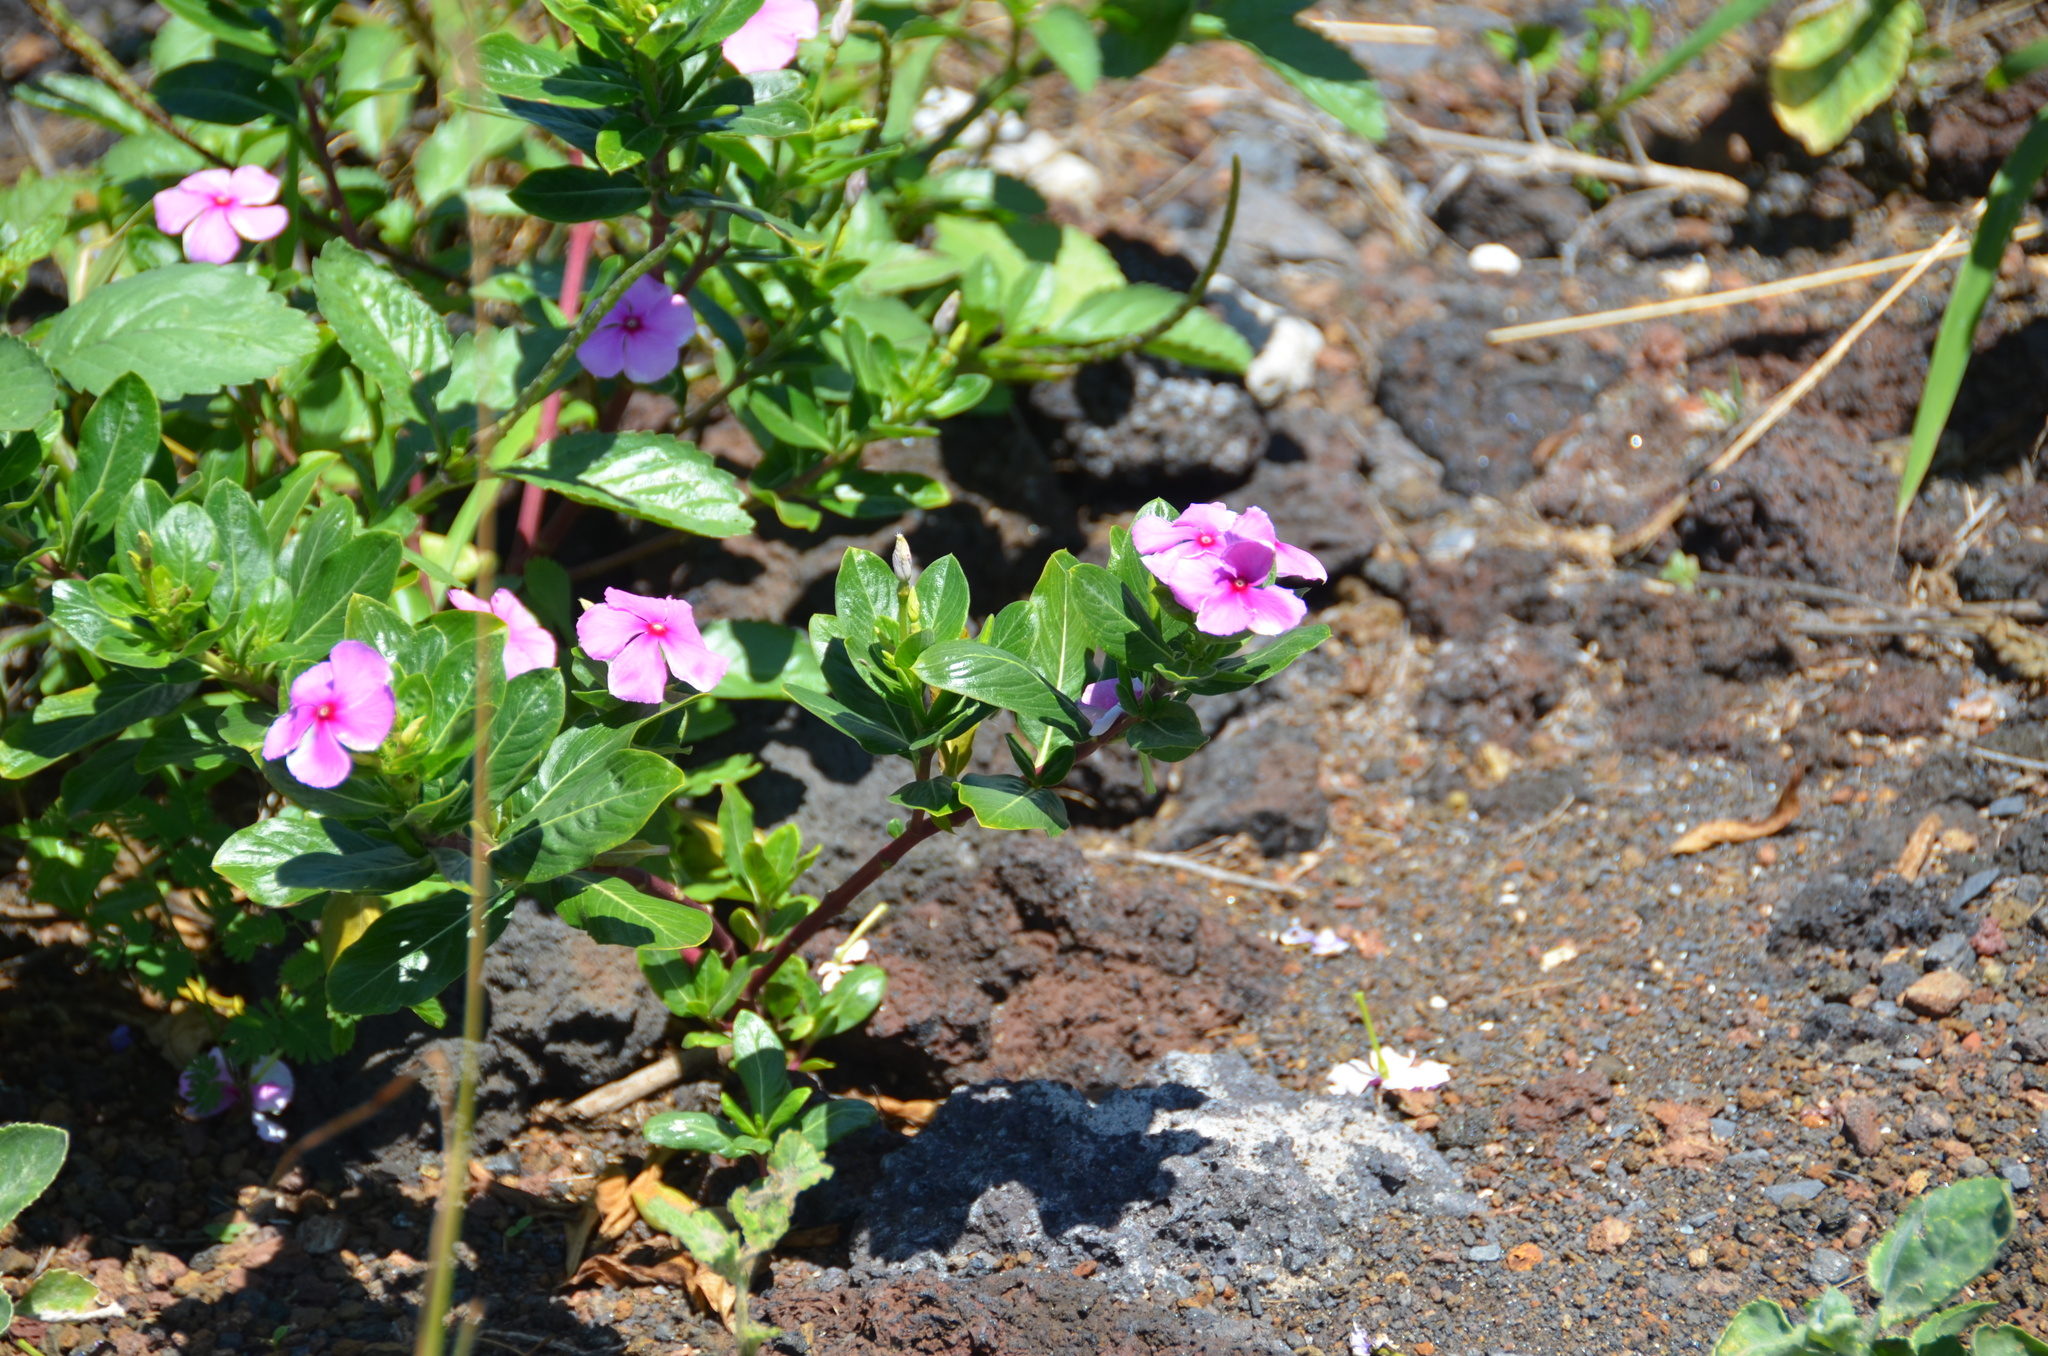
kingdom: Plantae
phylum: Tracheophyta
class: Magnoliopsida
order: Gentianales
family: Apocynaceae
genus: Catharanthus
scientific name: Catharanthus roseus
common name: Madagascar periwinkle
